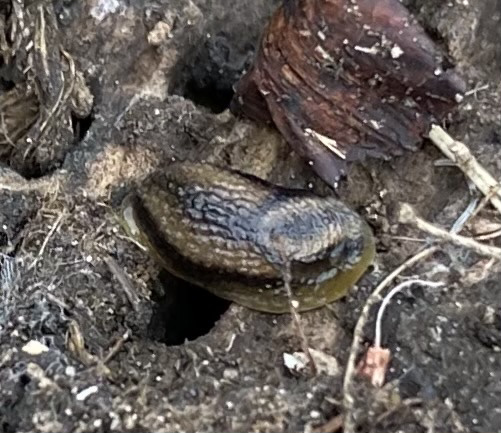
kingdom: Animalia
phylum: Mollusca
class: Gastropoda
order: Stylommatophora
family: Arionidae
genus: Arion
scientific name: Arion owenii
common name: Warty arion
